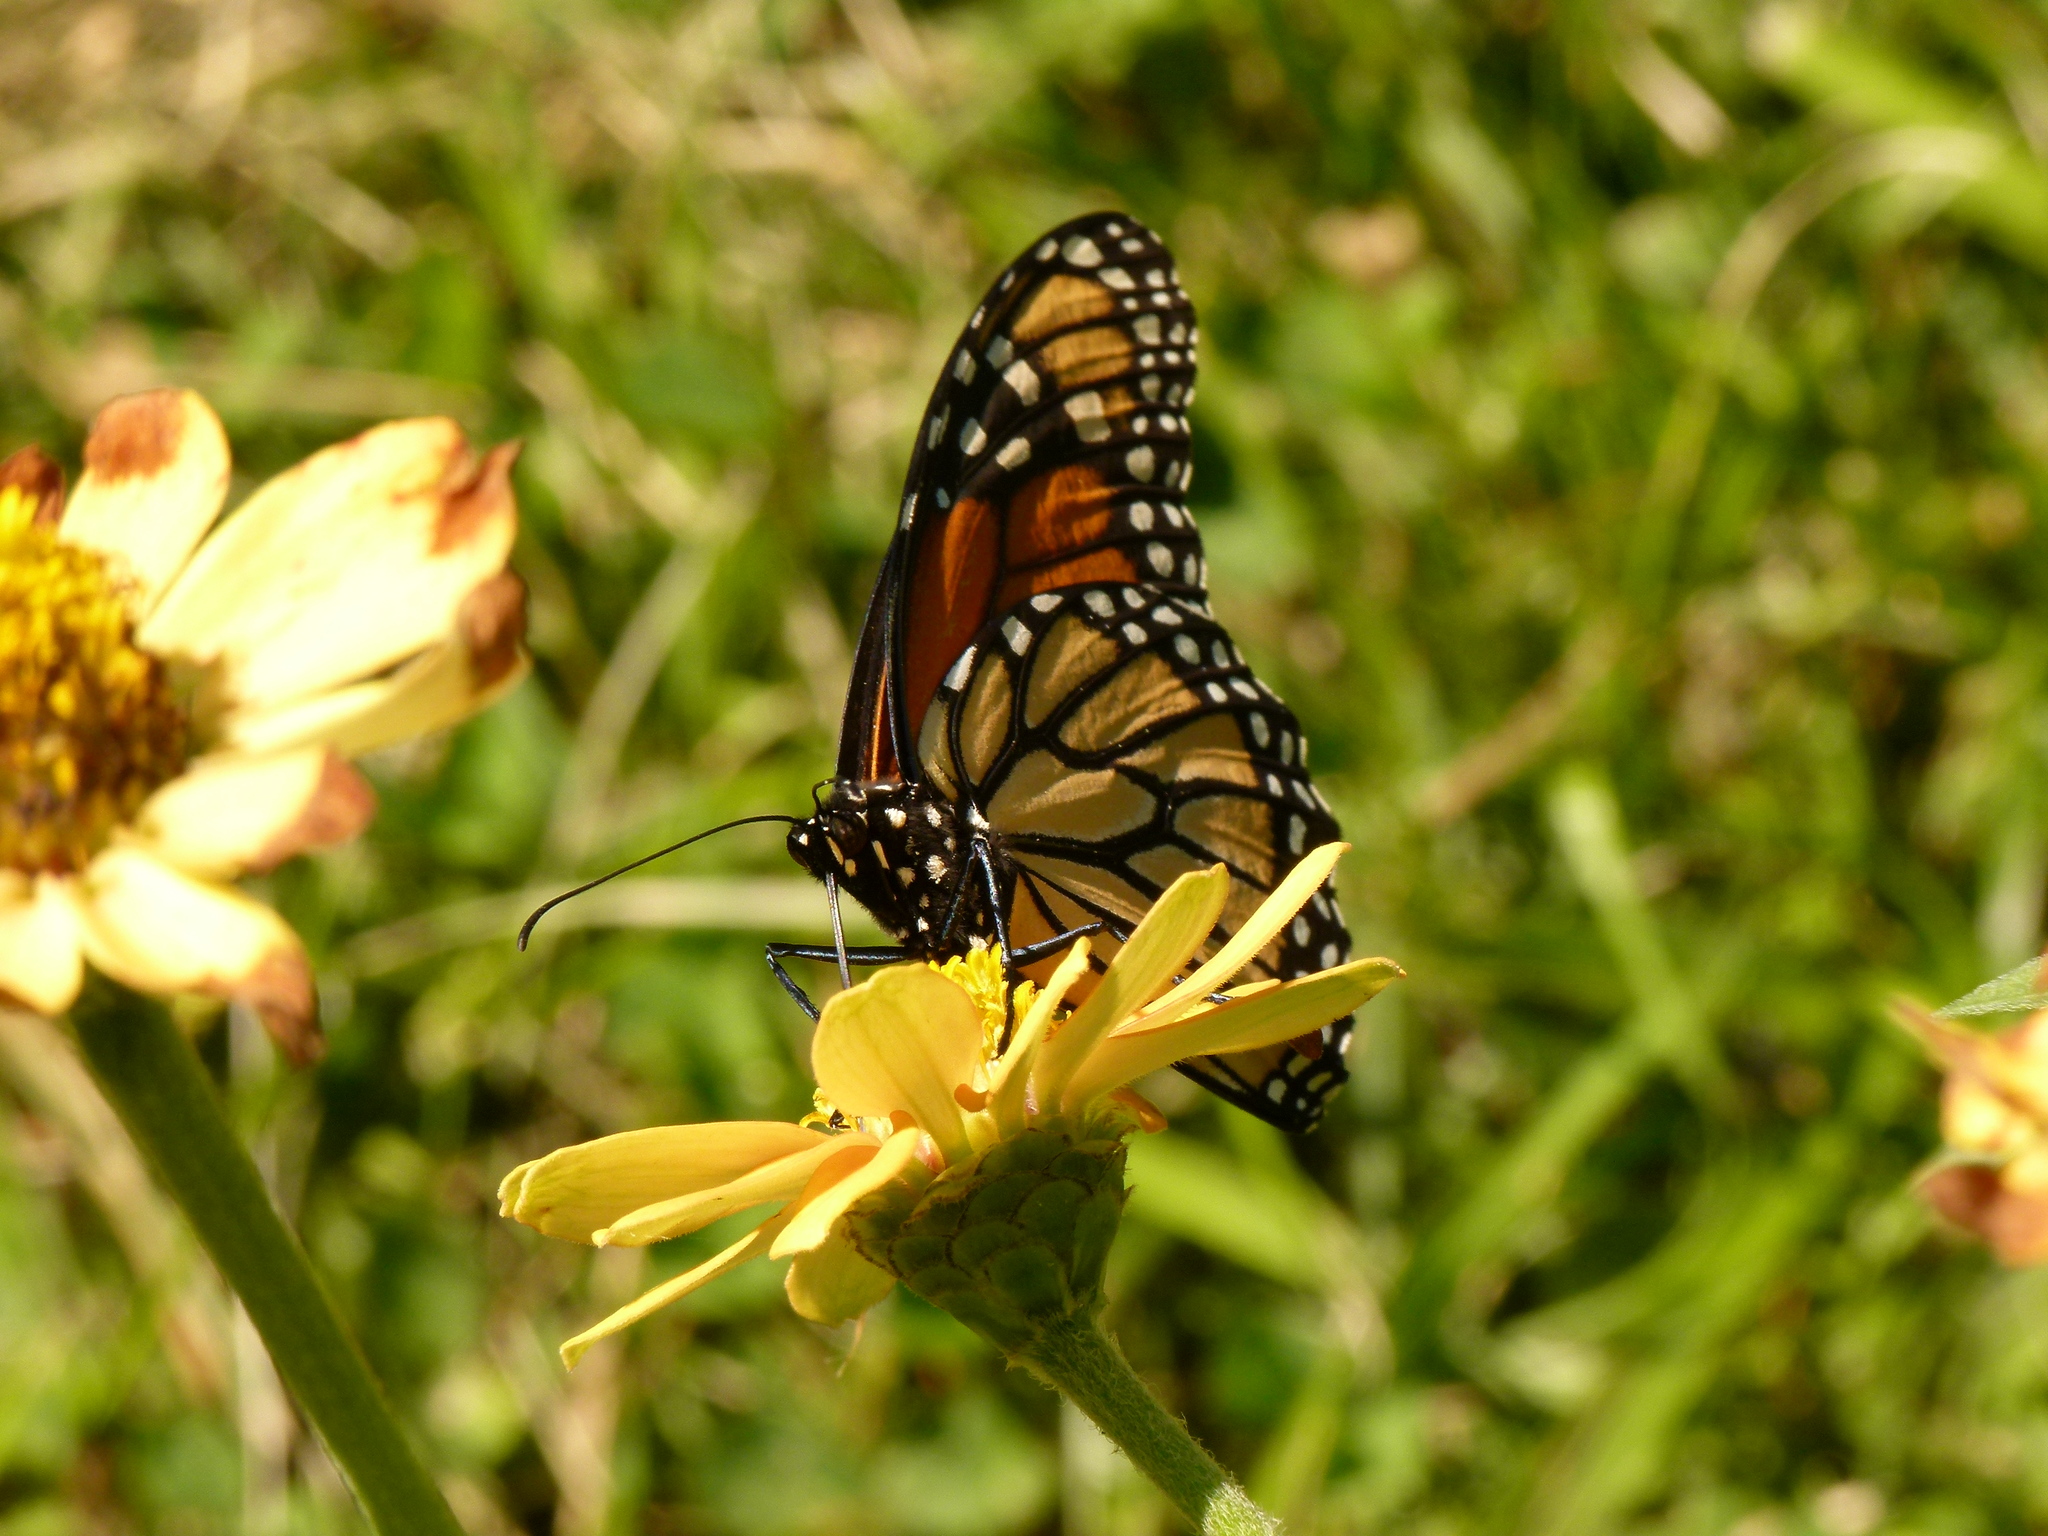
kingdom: Animalia
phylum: Arthropoda
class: Insecta
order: Lepidoptera
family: Nymphalidae
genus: Danaus
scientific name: Danaus plexippus
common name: Monarch
